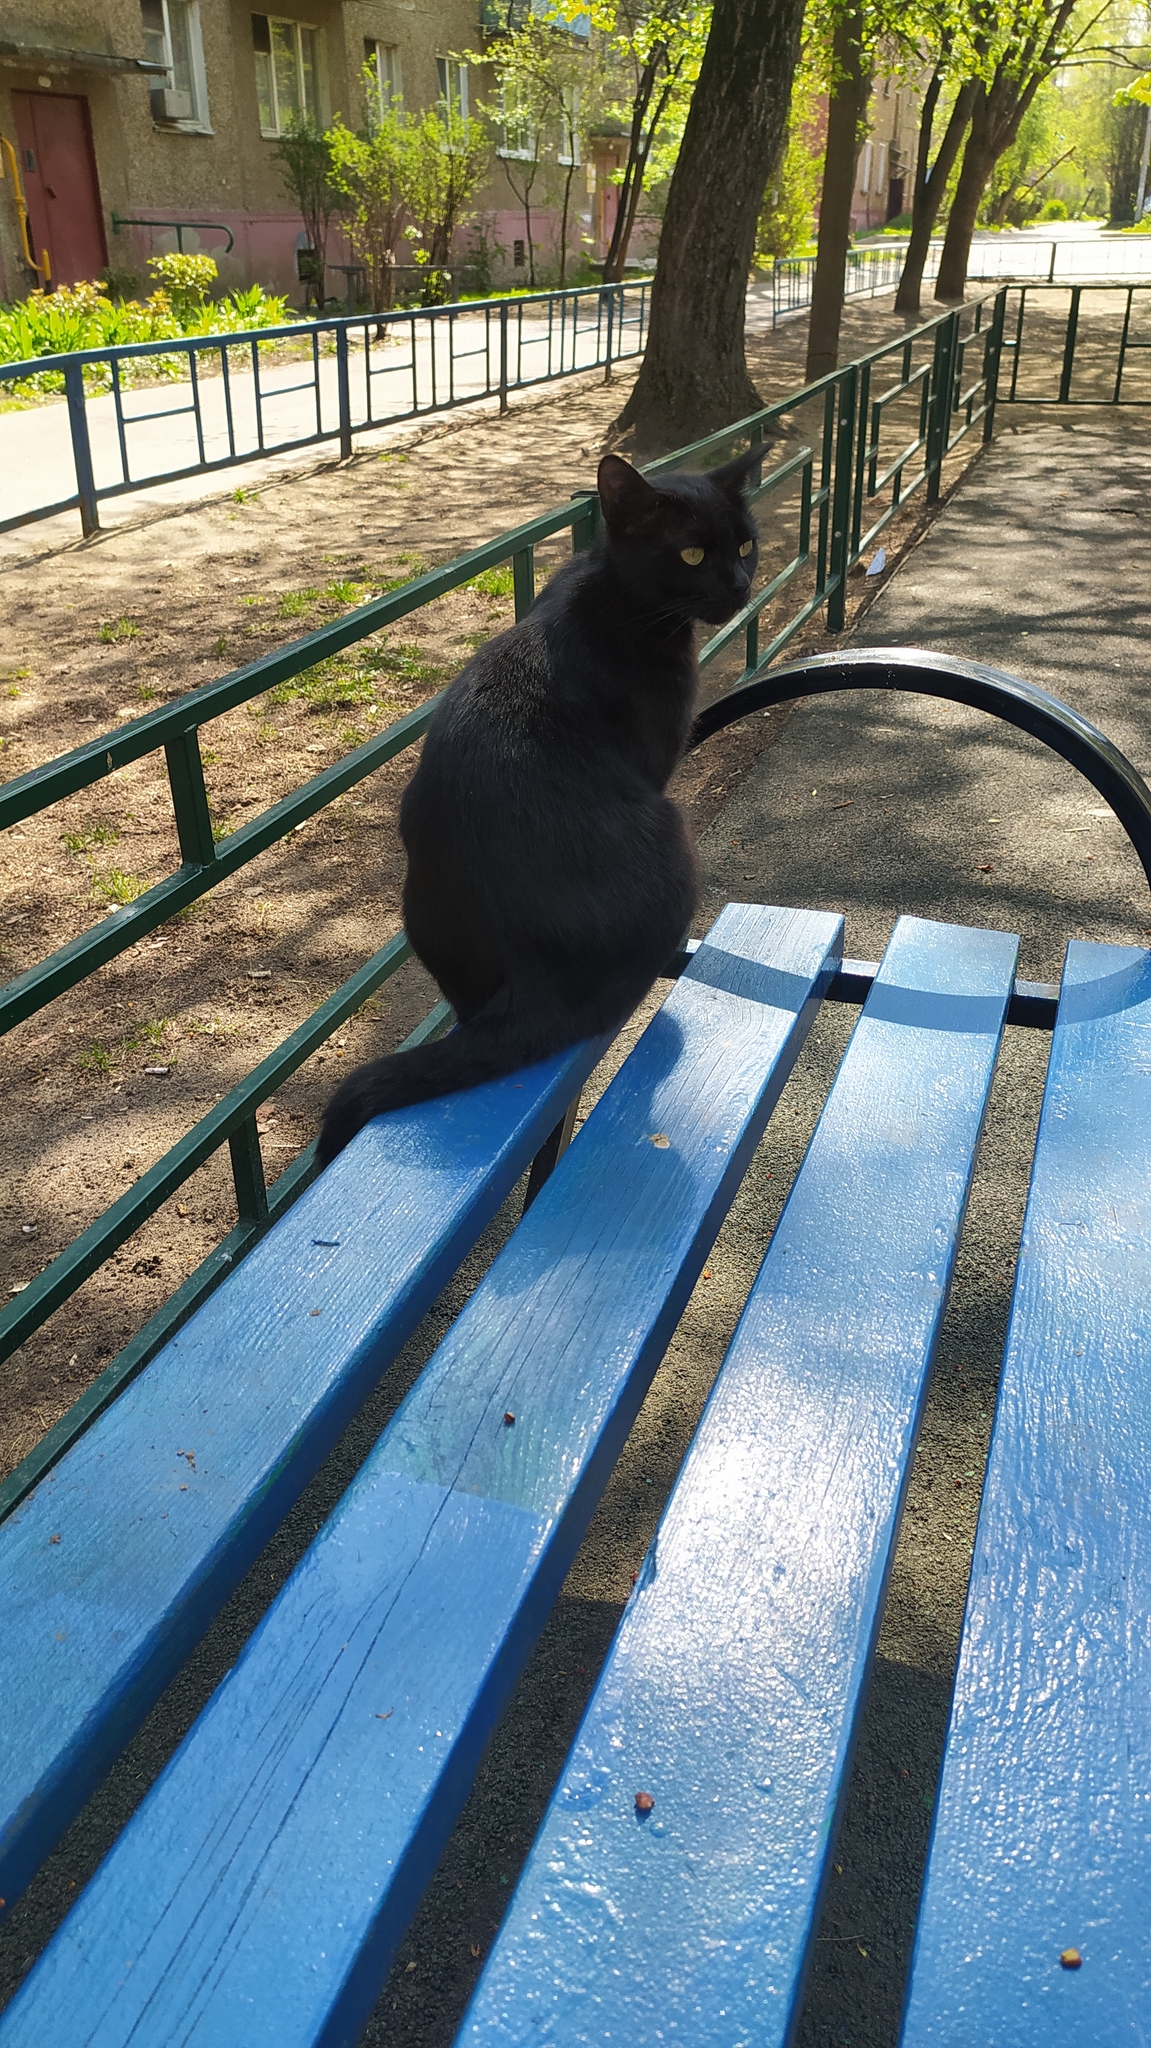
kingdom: Animalia
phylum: Chordata
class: Mammalia
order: Carnivora
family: Felidae
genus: Felis
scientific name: Felis catus
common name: Domestic cat
